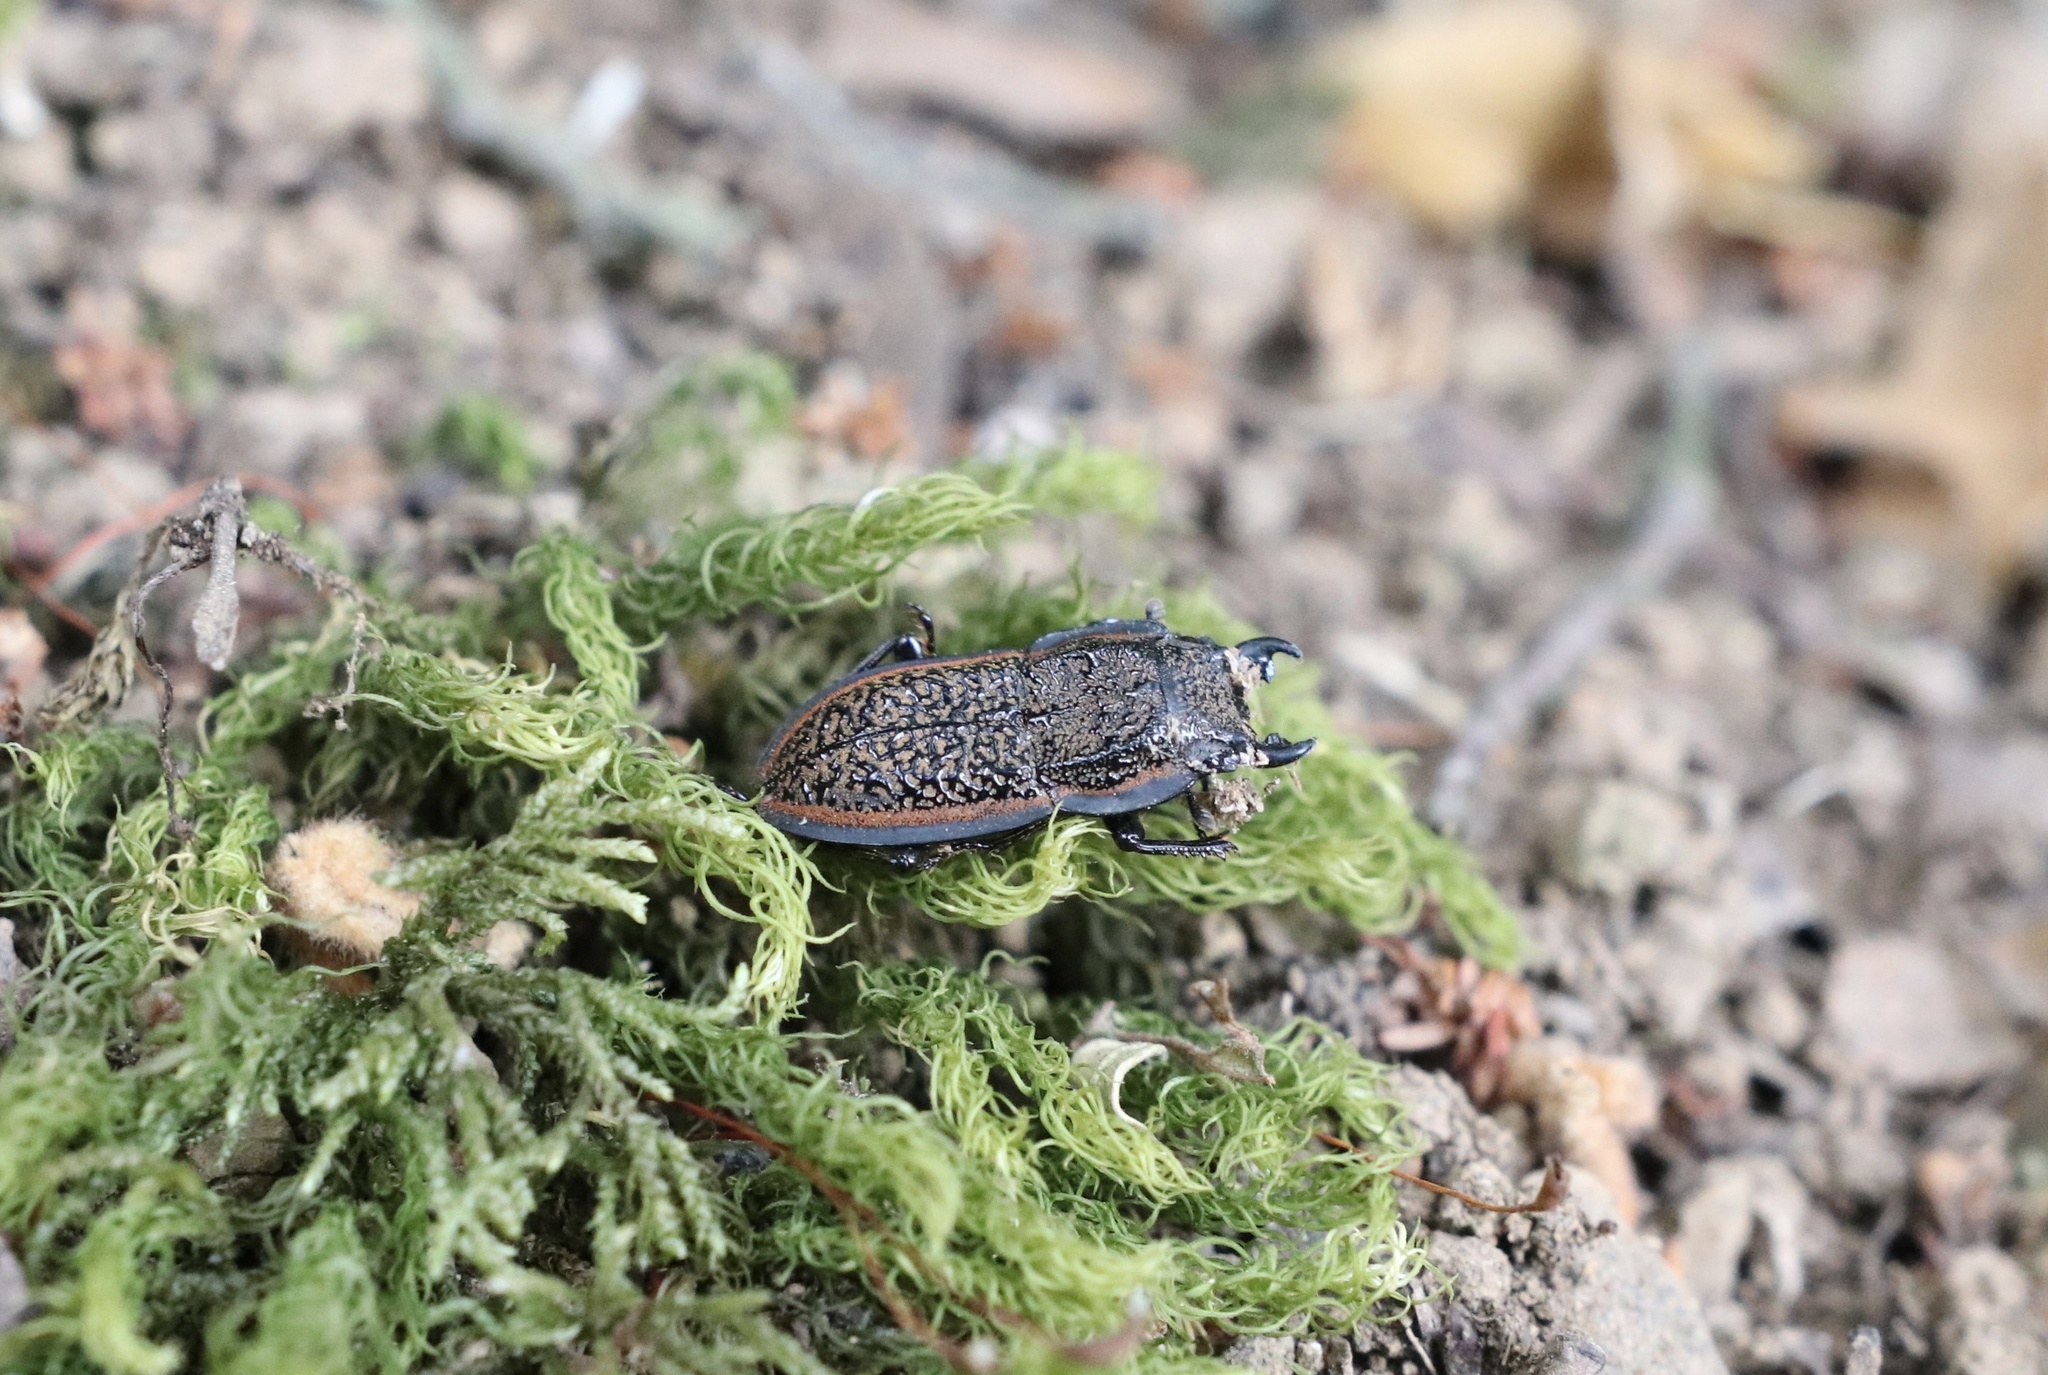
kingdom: Animalia
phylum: Arthropoda
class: Insecta
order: Coleoptera
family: Lucanidae
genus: Erichius
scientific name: Erichius caelatus
